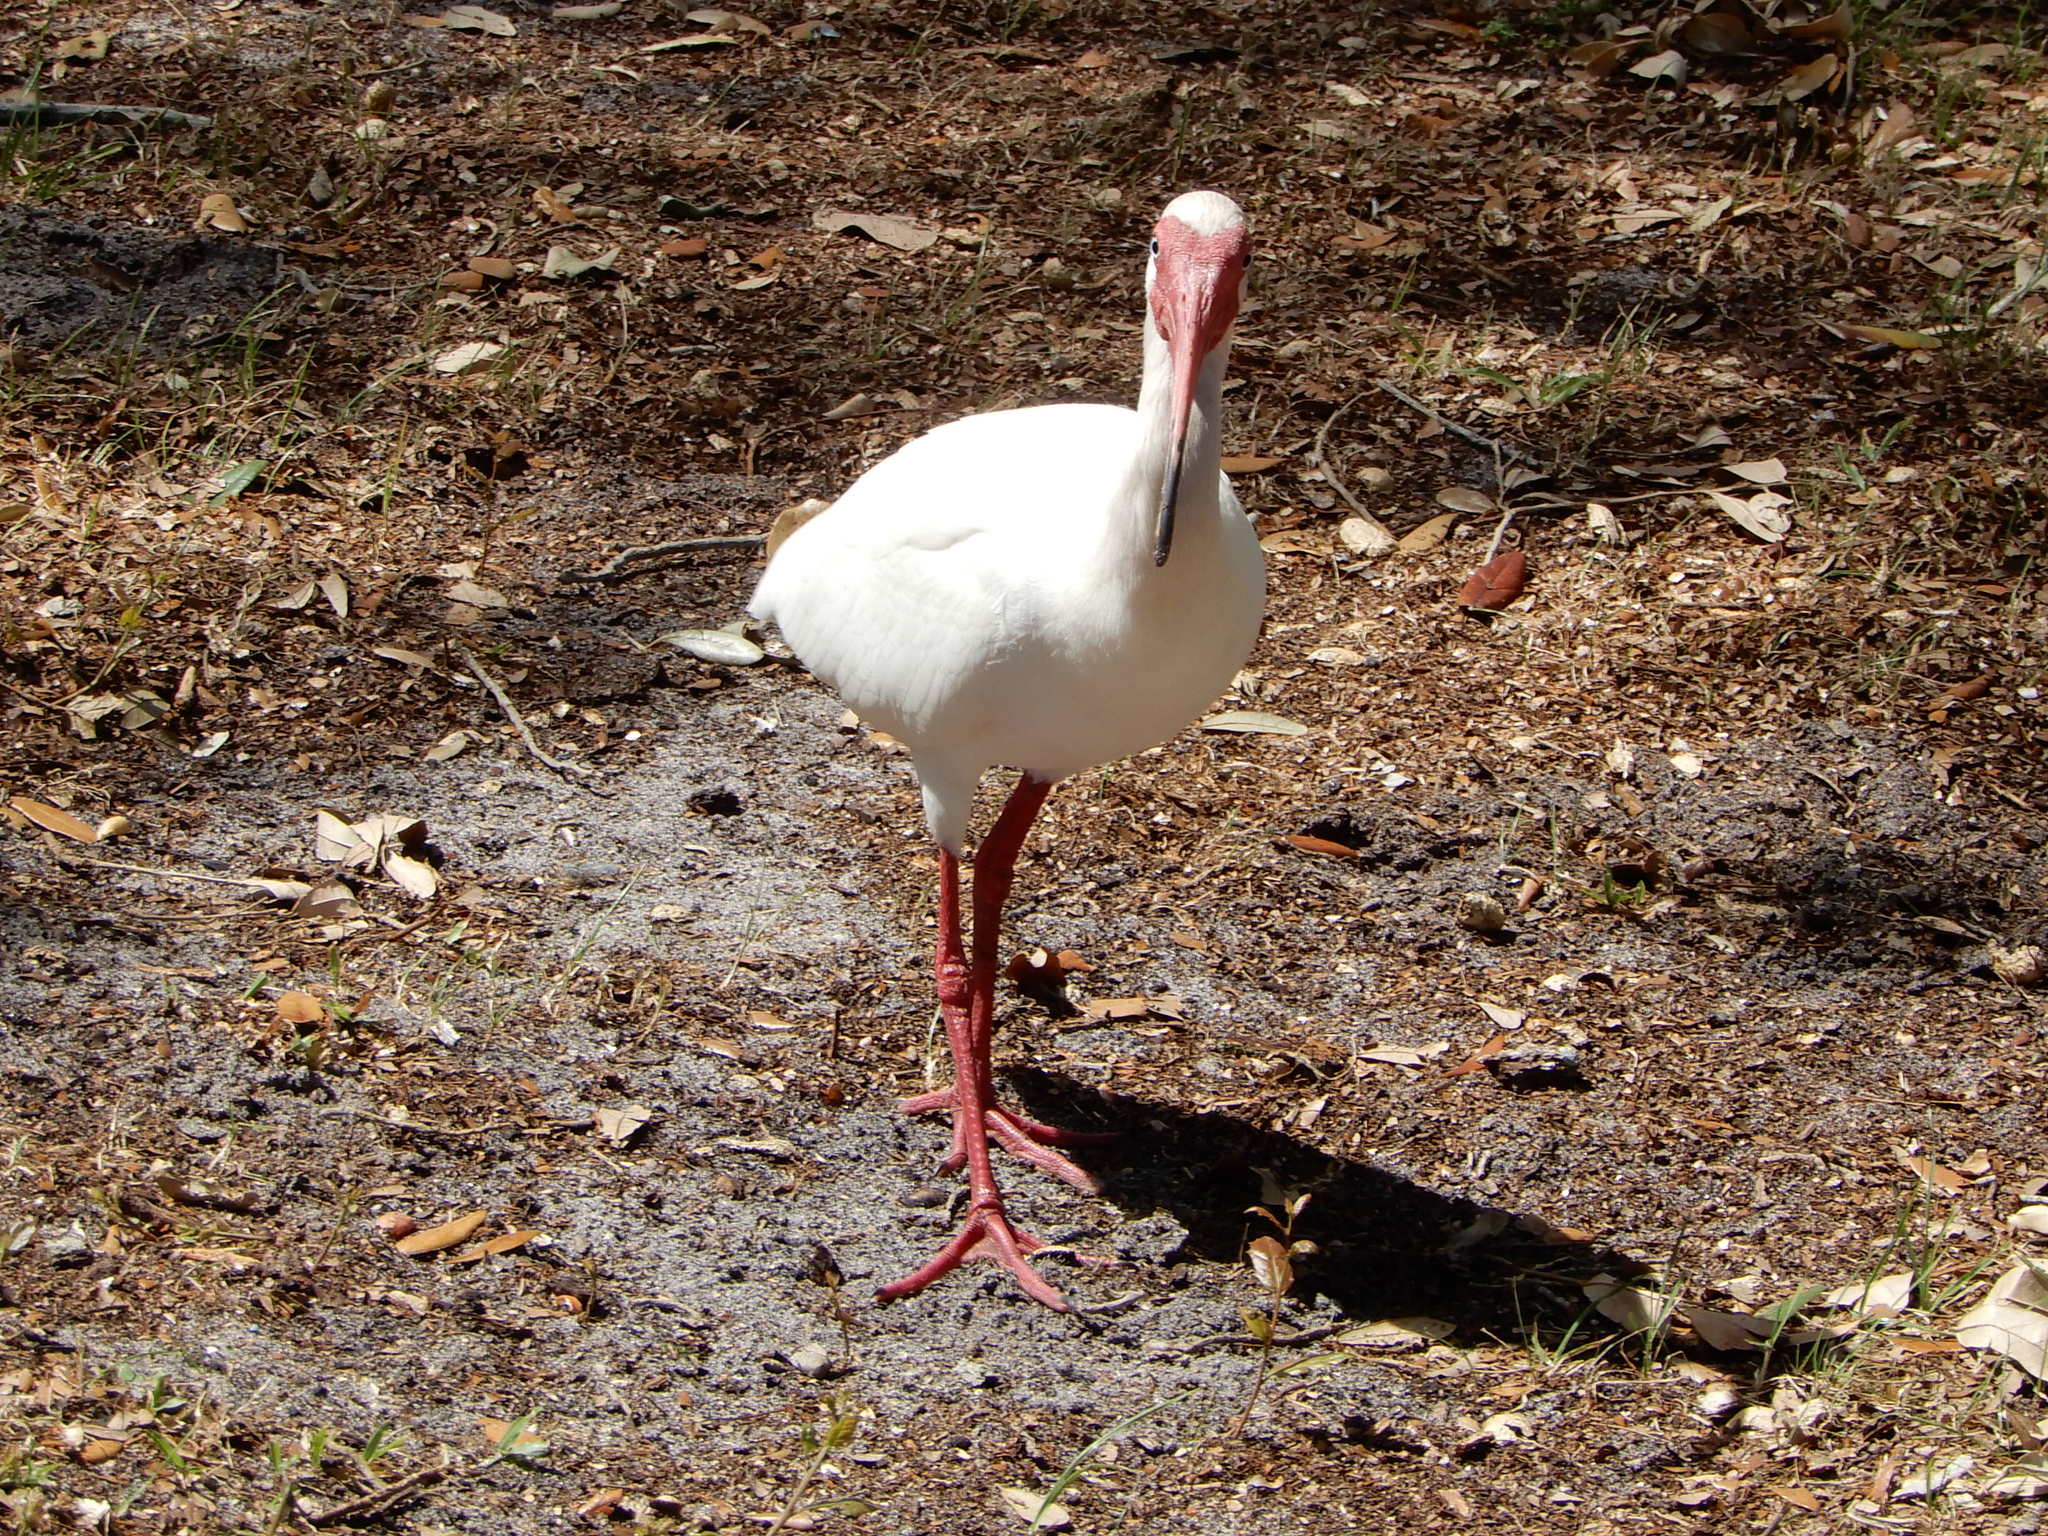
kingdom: Animalia
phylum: Chordata
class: Aves
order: Pelecaniformes
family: Threskiornithidae
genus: Eudocimus
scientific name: Eudocimus albus
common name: White ibis
